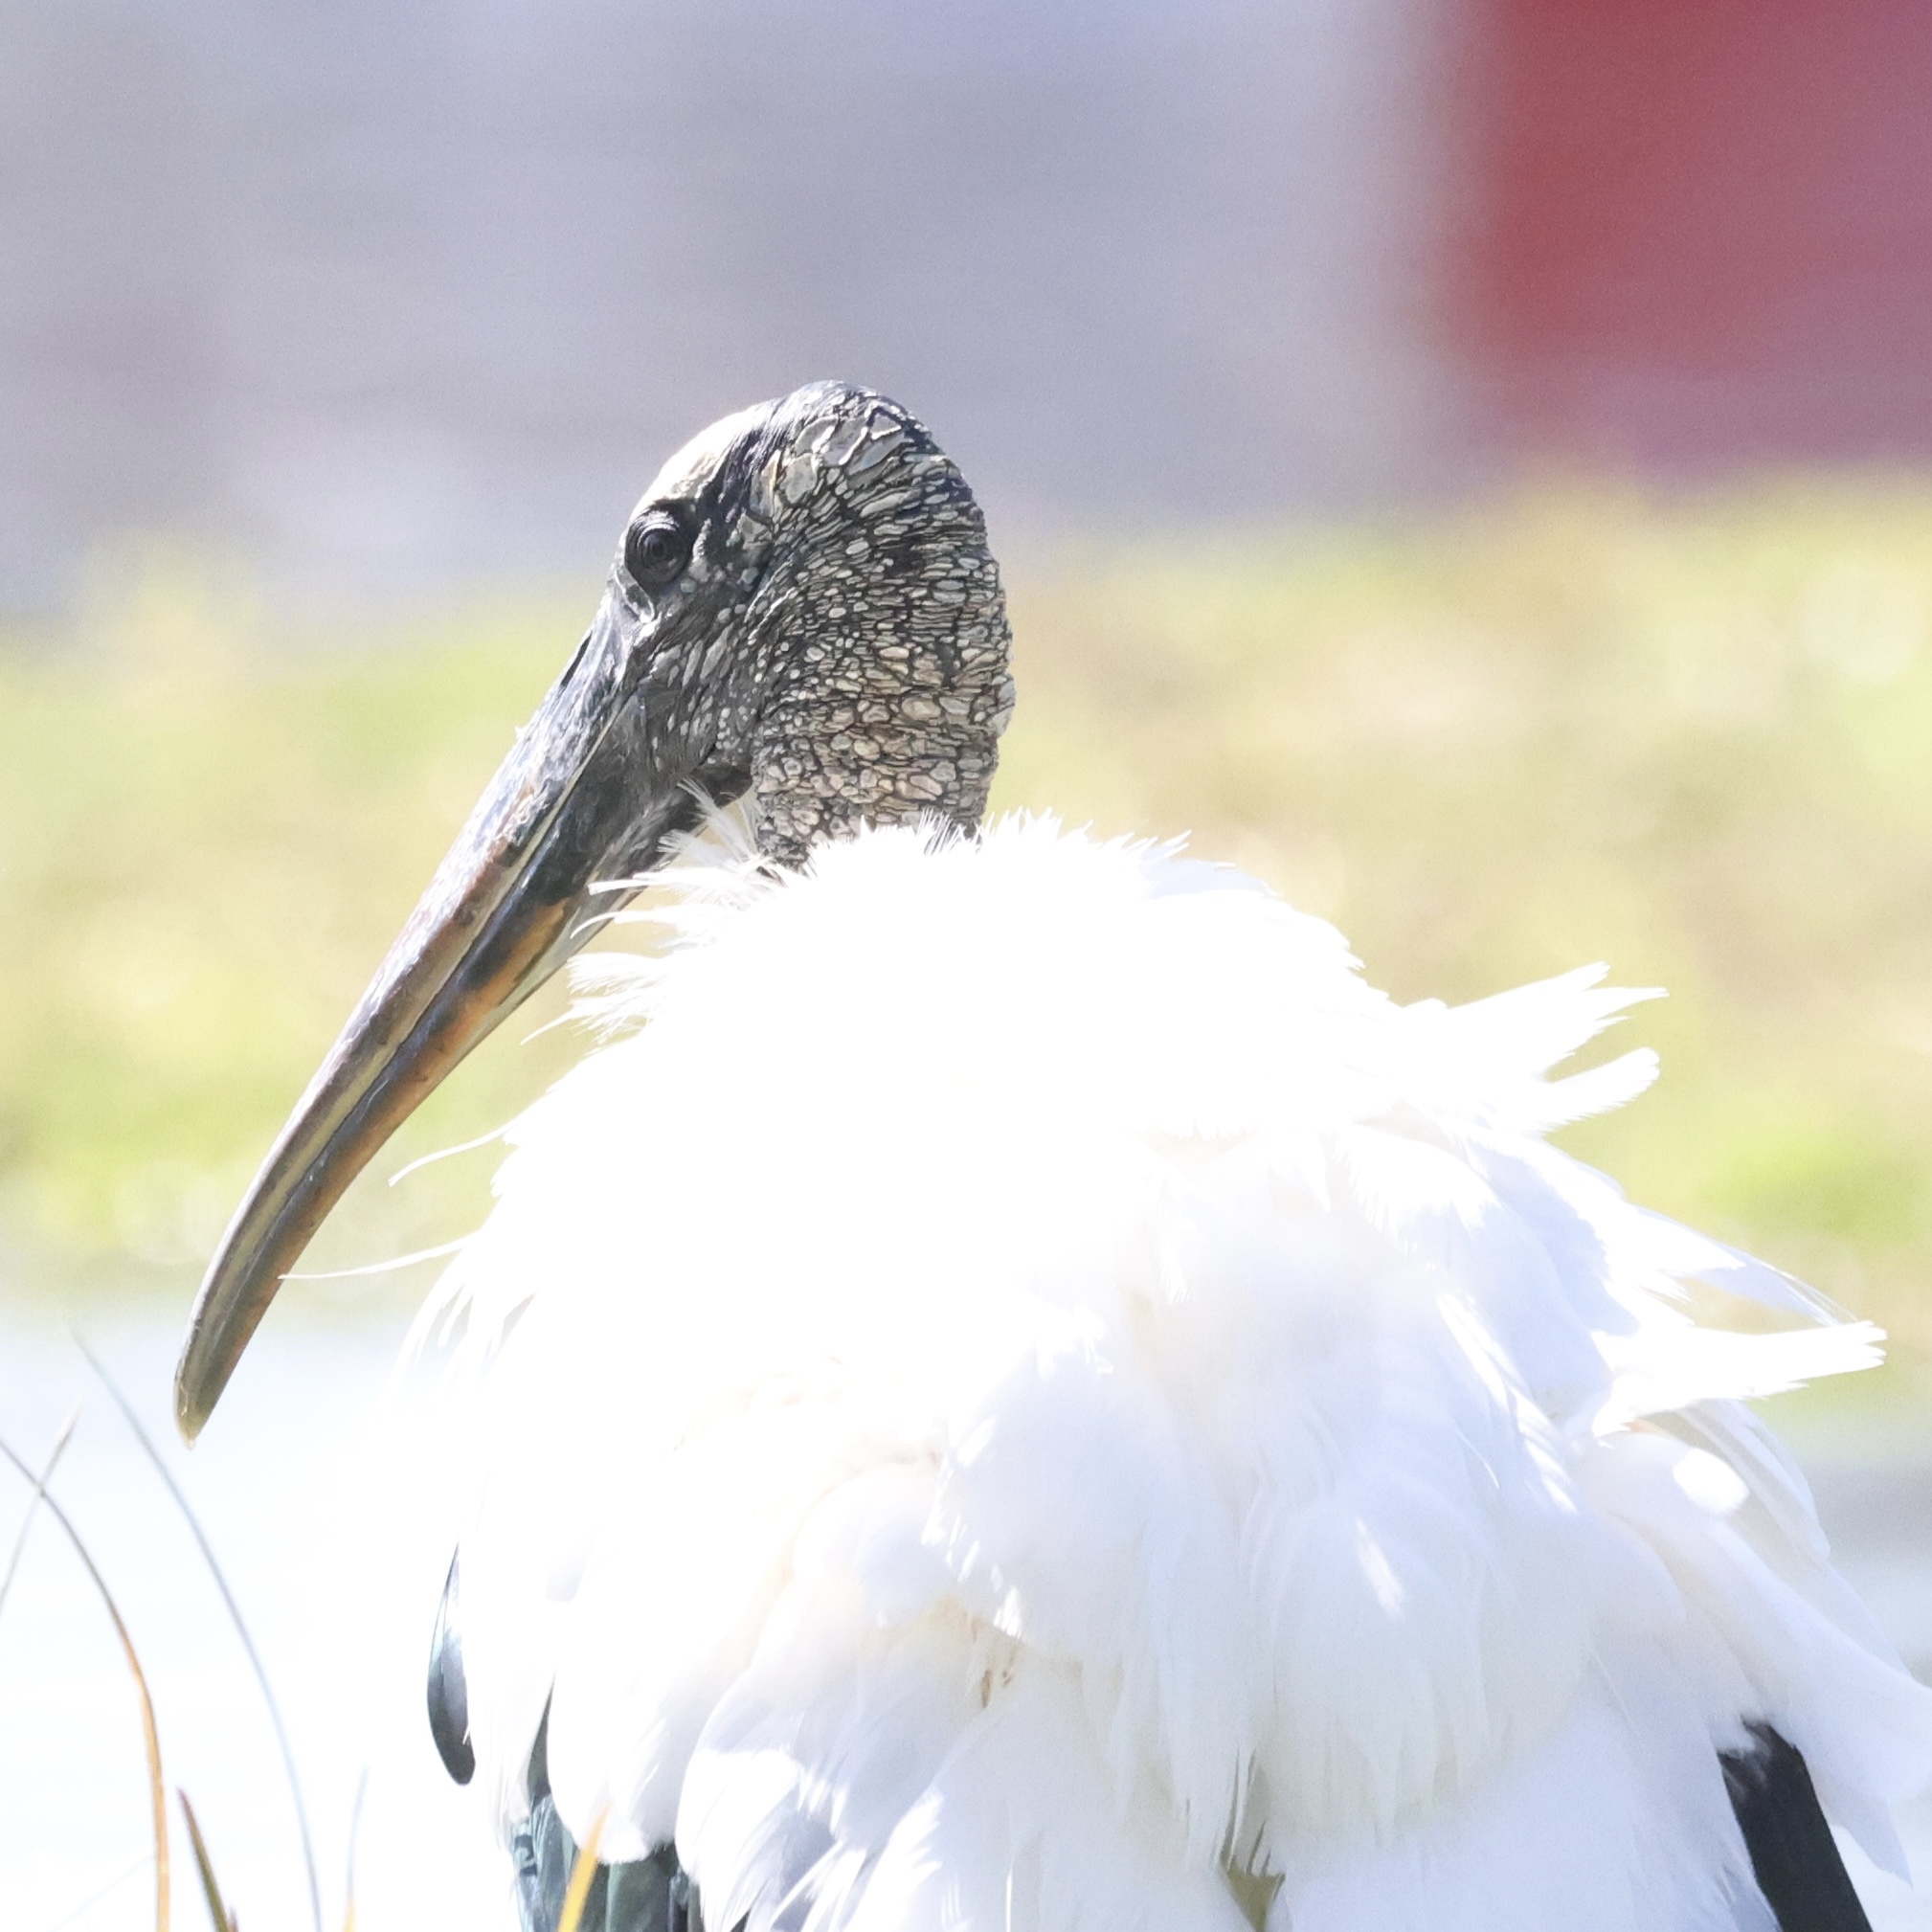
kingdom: Animalia
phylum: Chordata
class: Aves
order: Ciconiiformes
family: Ciconiidae
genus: Mycteria
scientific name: Mycteria americana
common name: Wood stork
